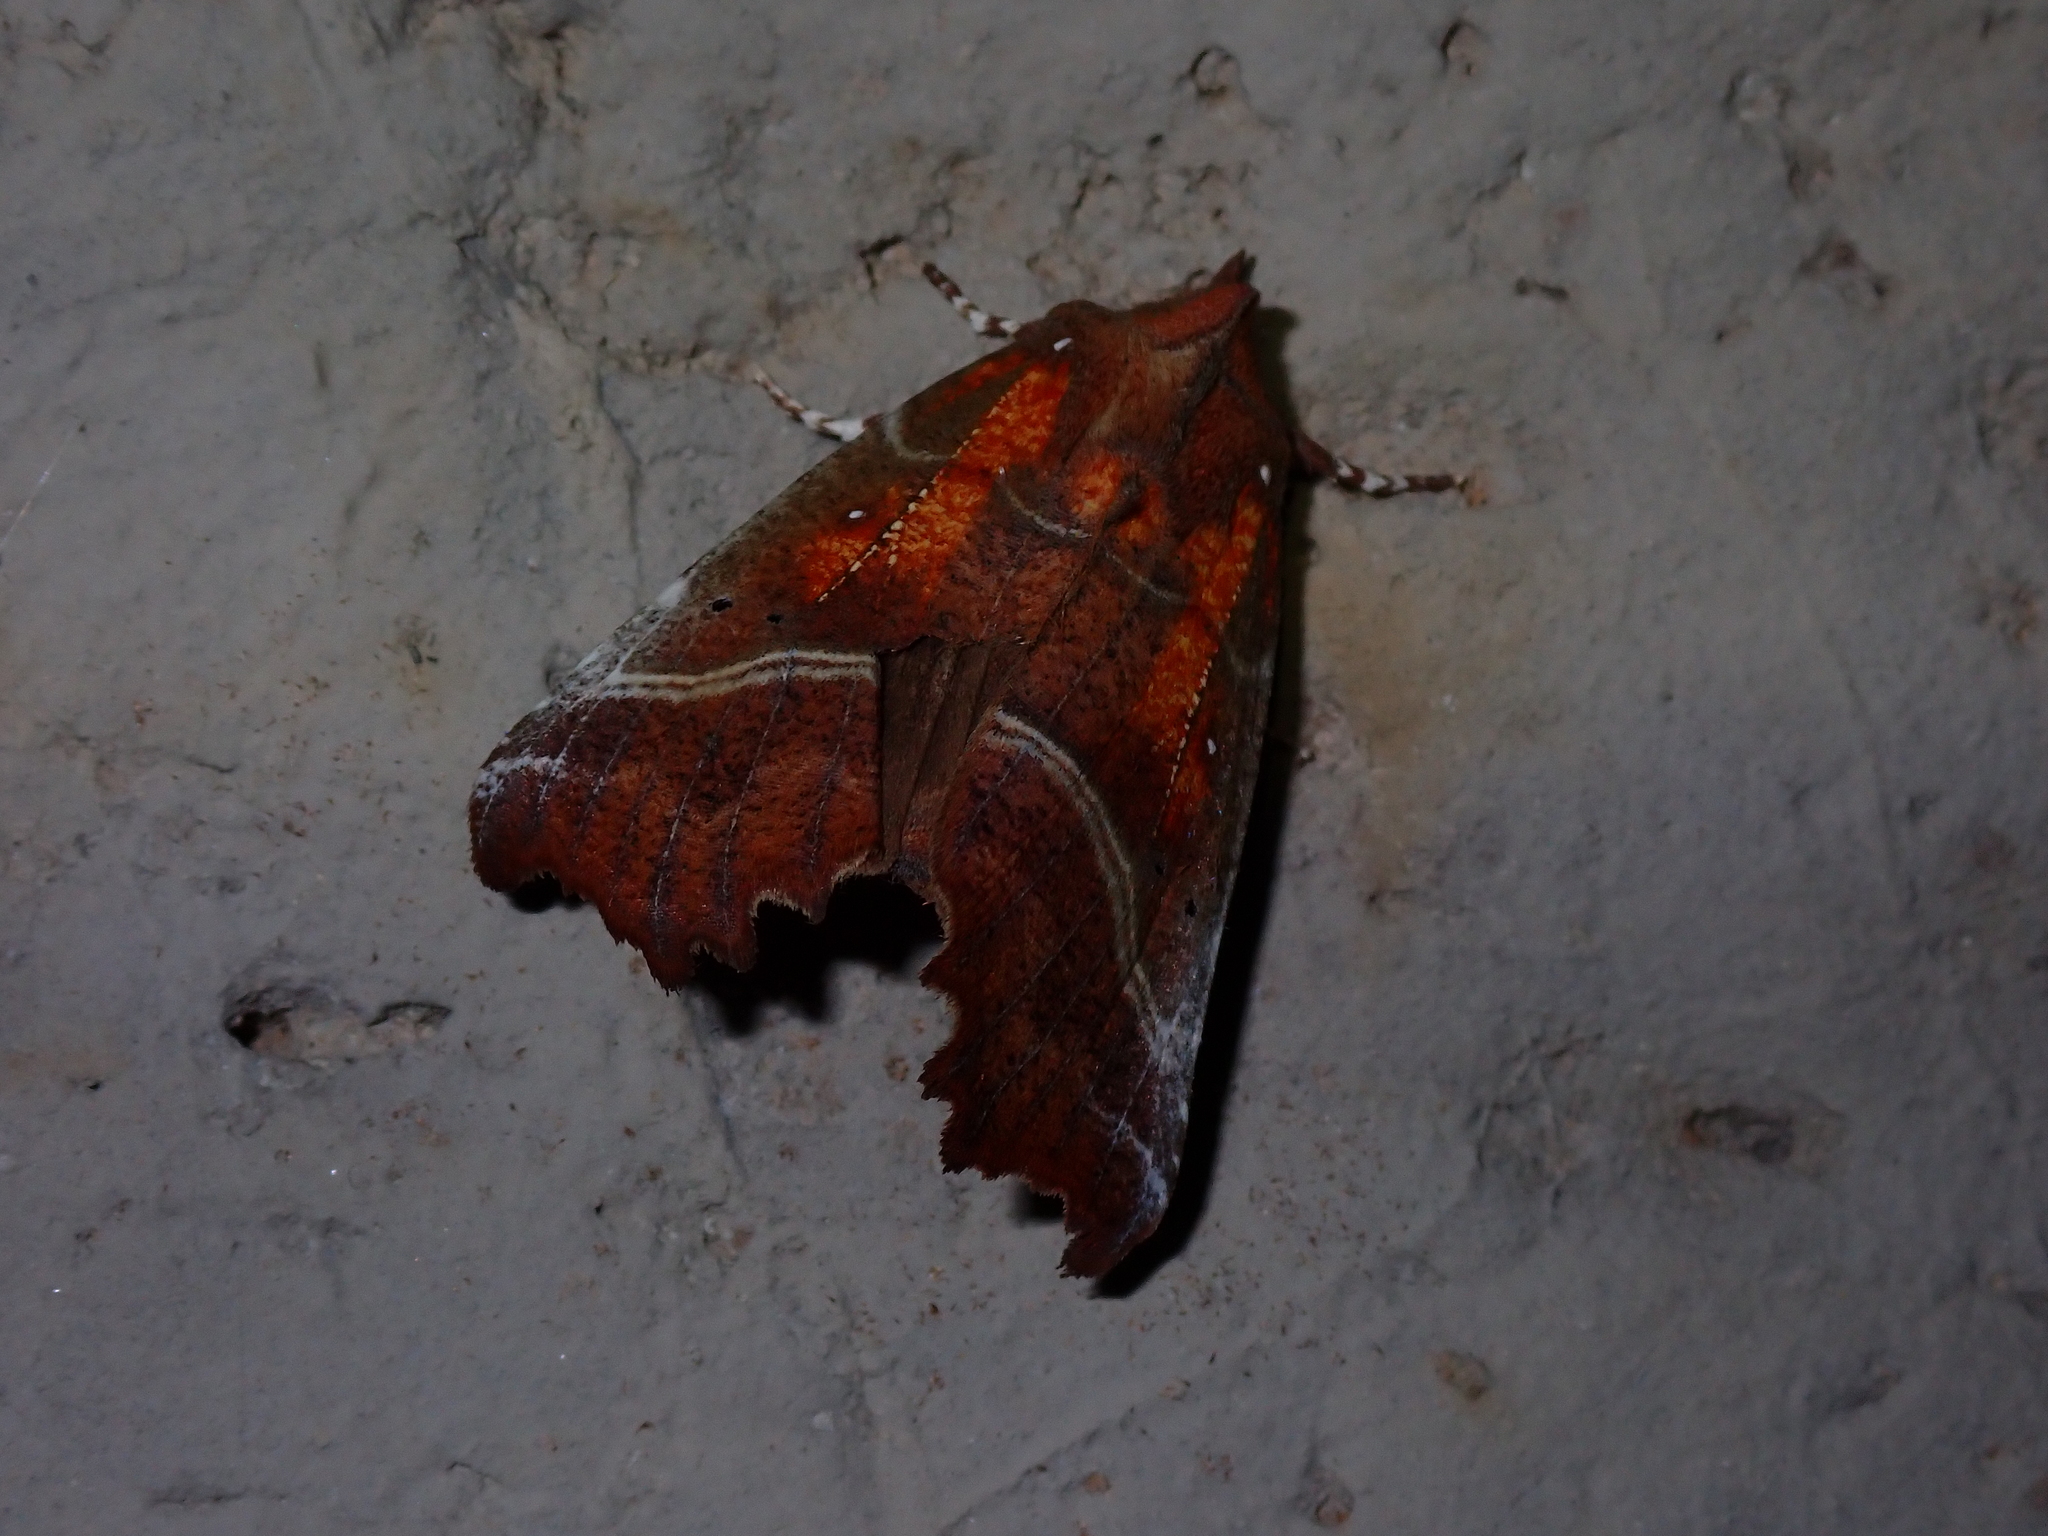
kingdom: Animalia
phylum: Arthropoda
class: Insecta
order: Lepidoptera
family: Erebidae
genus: Scoliopteryx
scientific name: Scoliopteryx libatrix
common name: Herald
